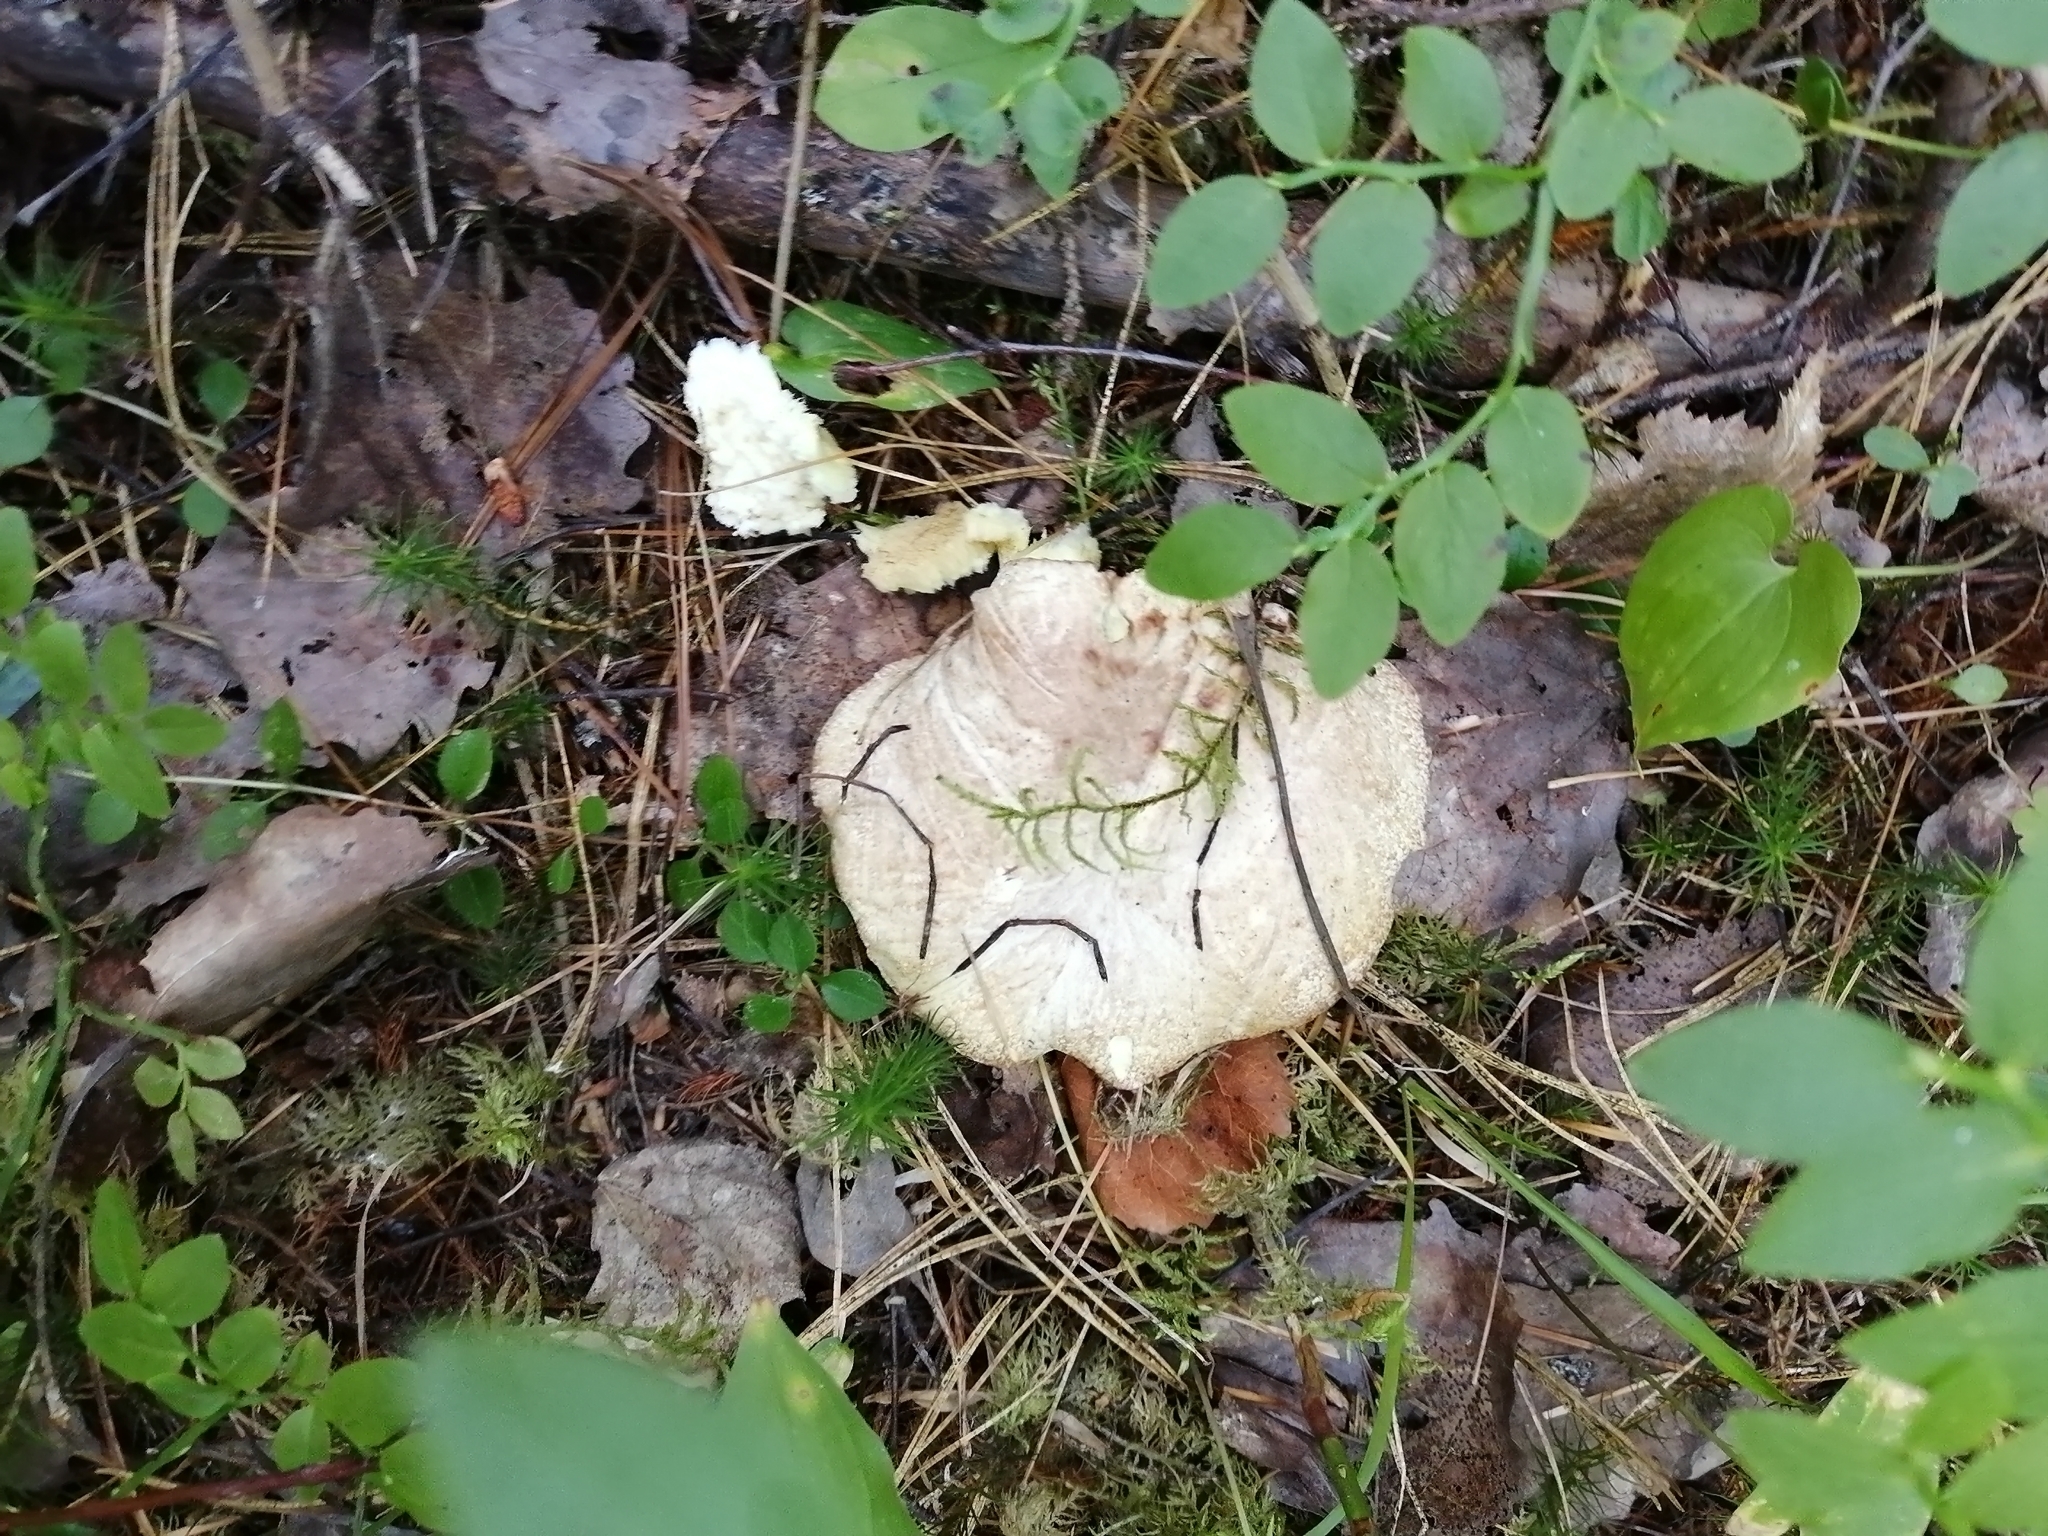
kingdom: Fungi
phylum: Basidiomycota
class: Agaricomycetes
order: Boletales
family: Suillaceae
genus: Suillus
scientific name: Suillus placidus
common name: Slippery white bolete
